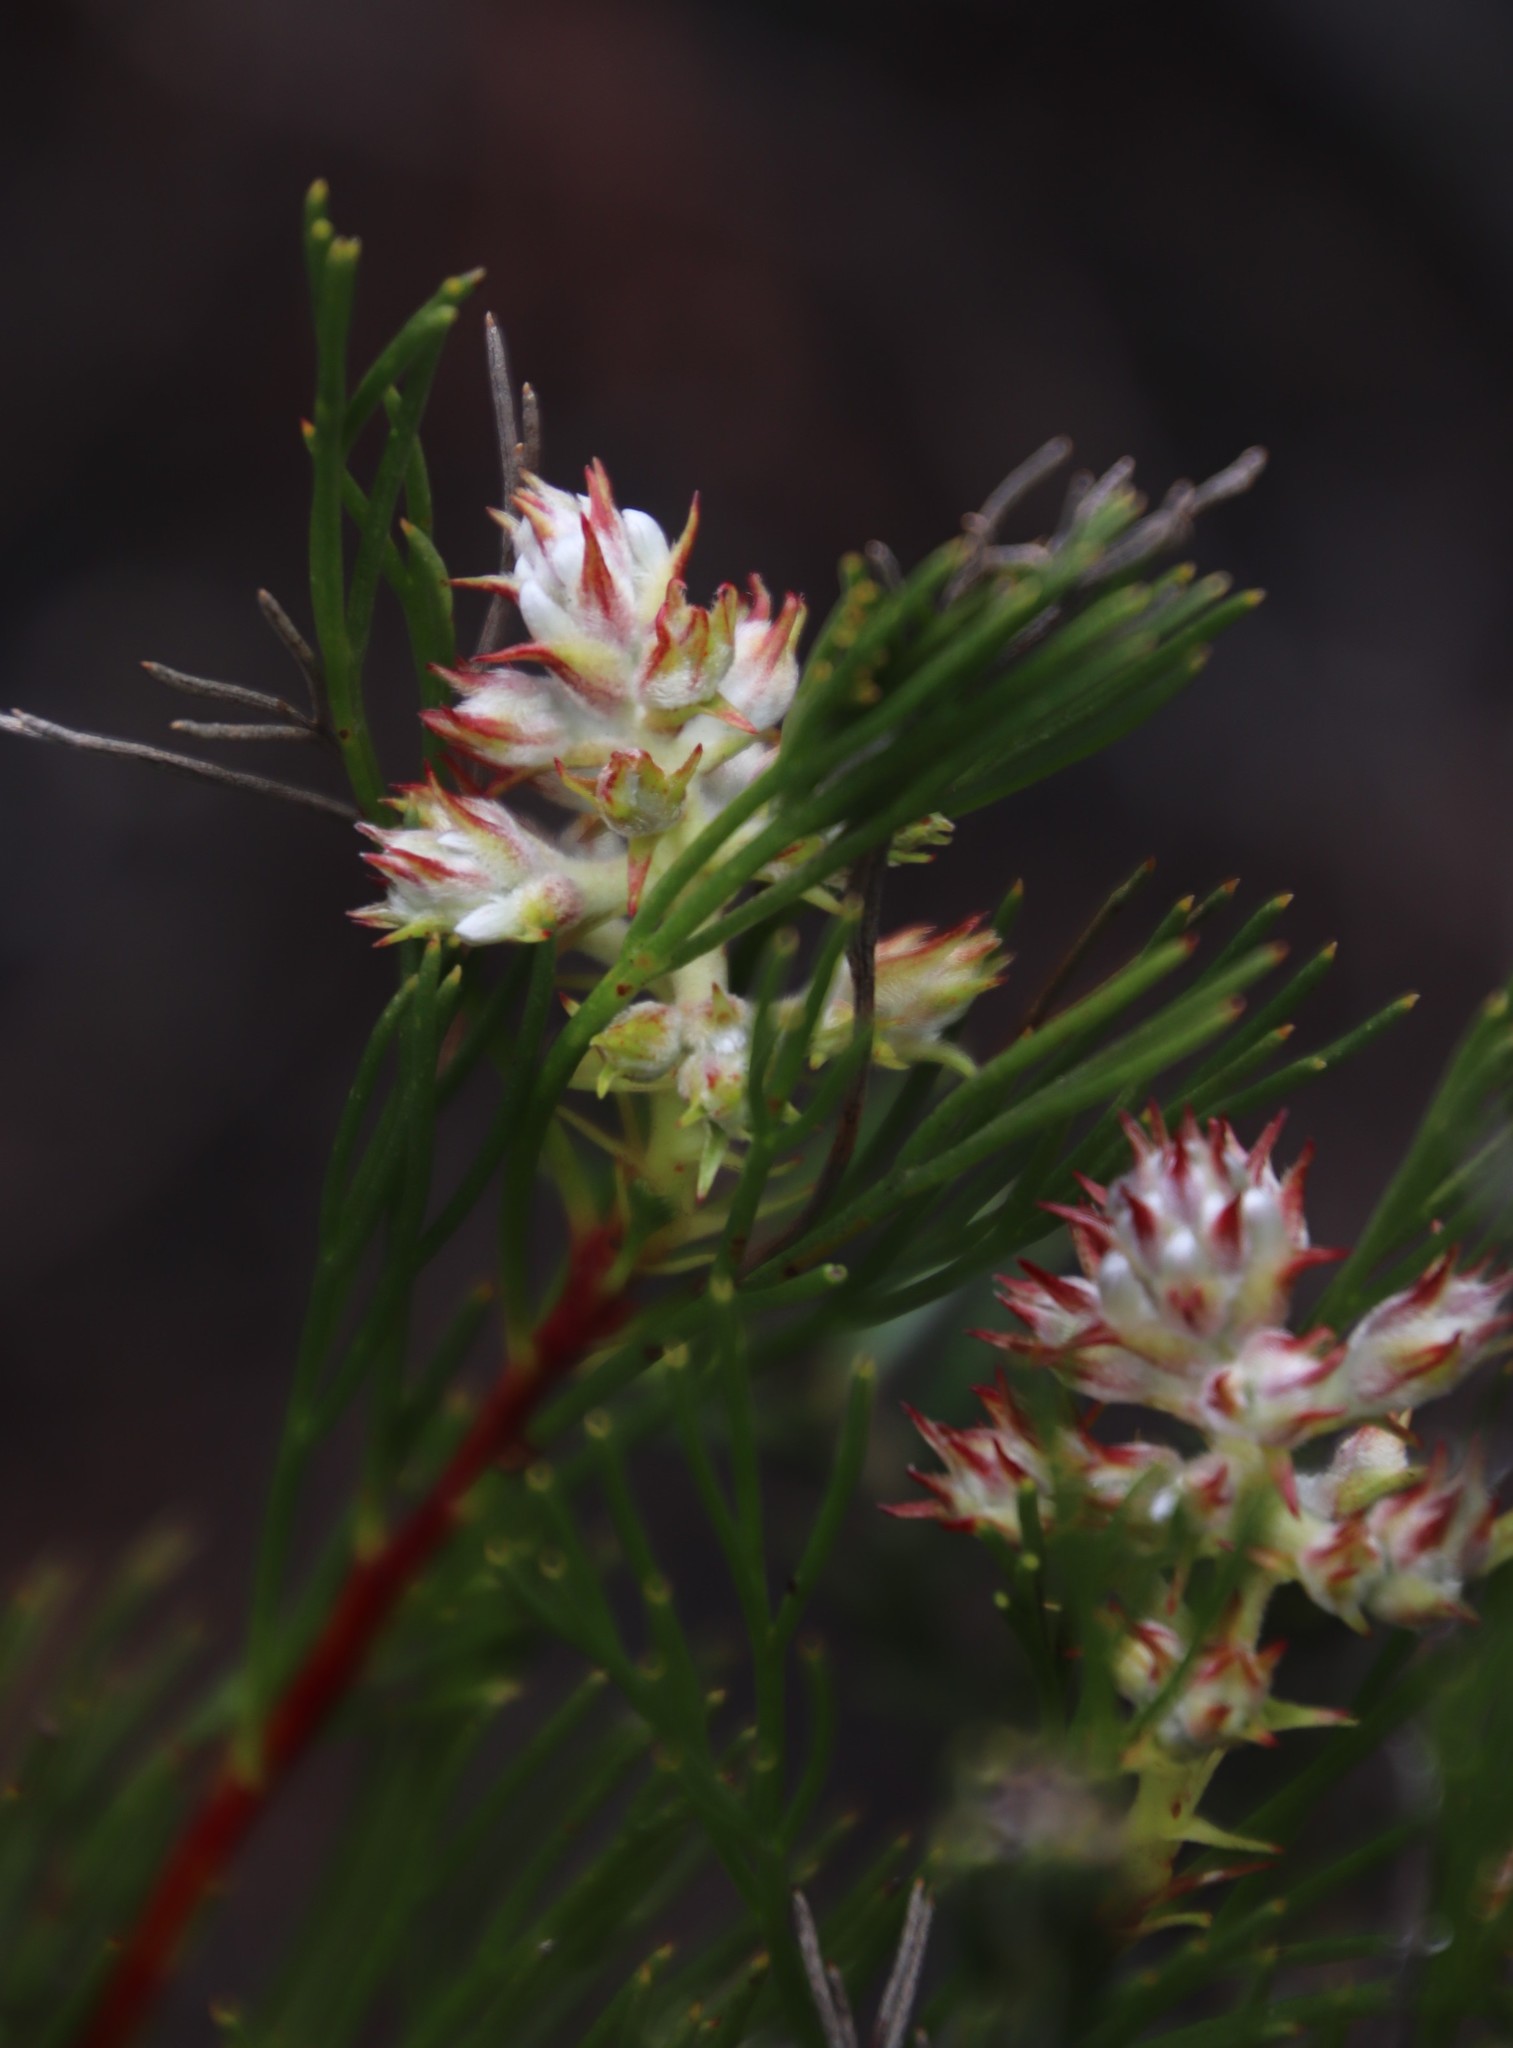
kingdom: Plantae
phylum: Tracheophyta
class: Magnoliopsida
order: Proteales
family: Proteaceae
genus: Serruria
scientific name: Serruria rubricaulis
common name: Red-stem spiderhead
